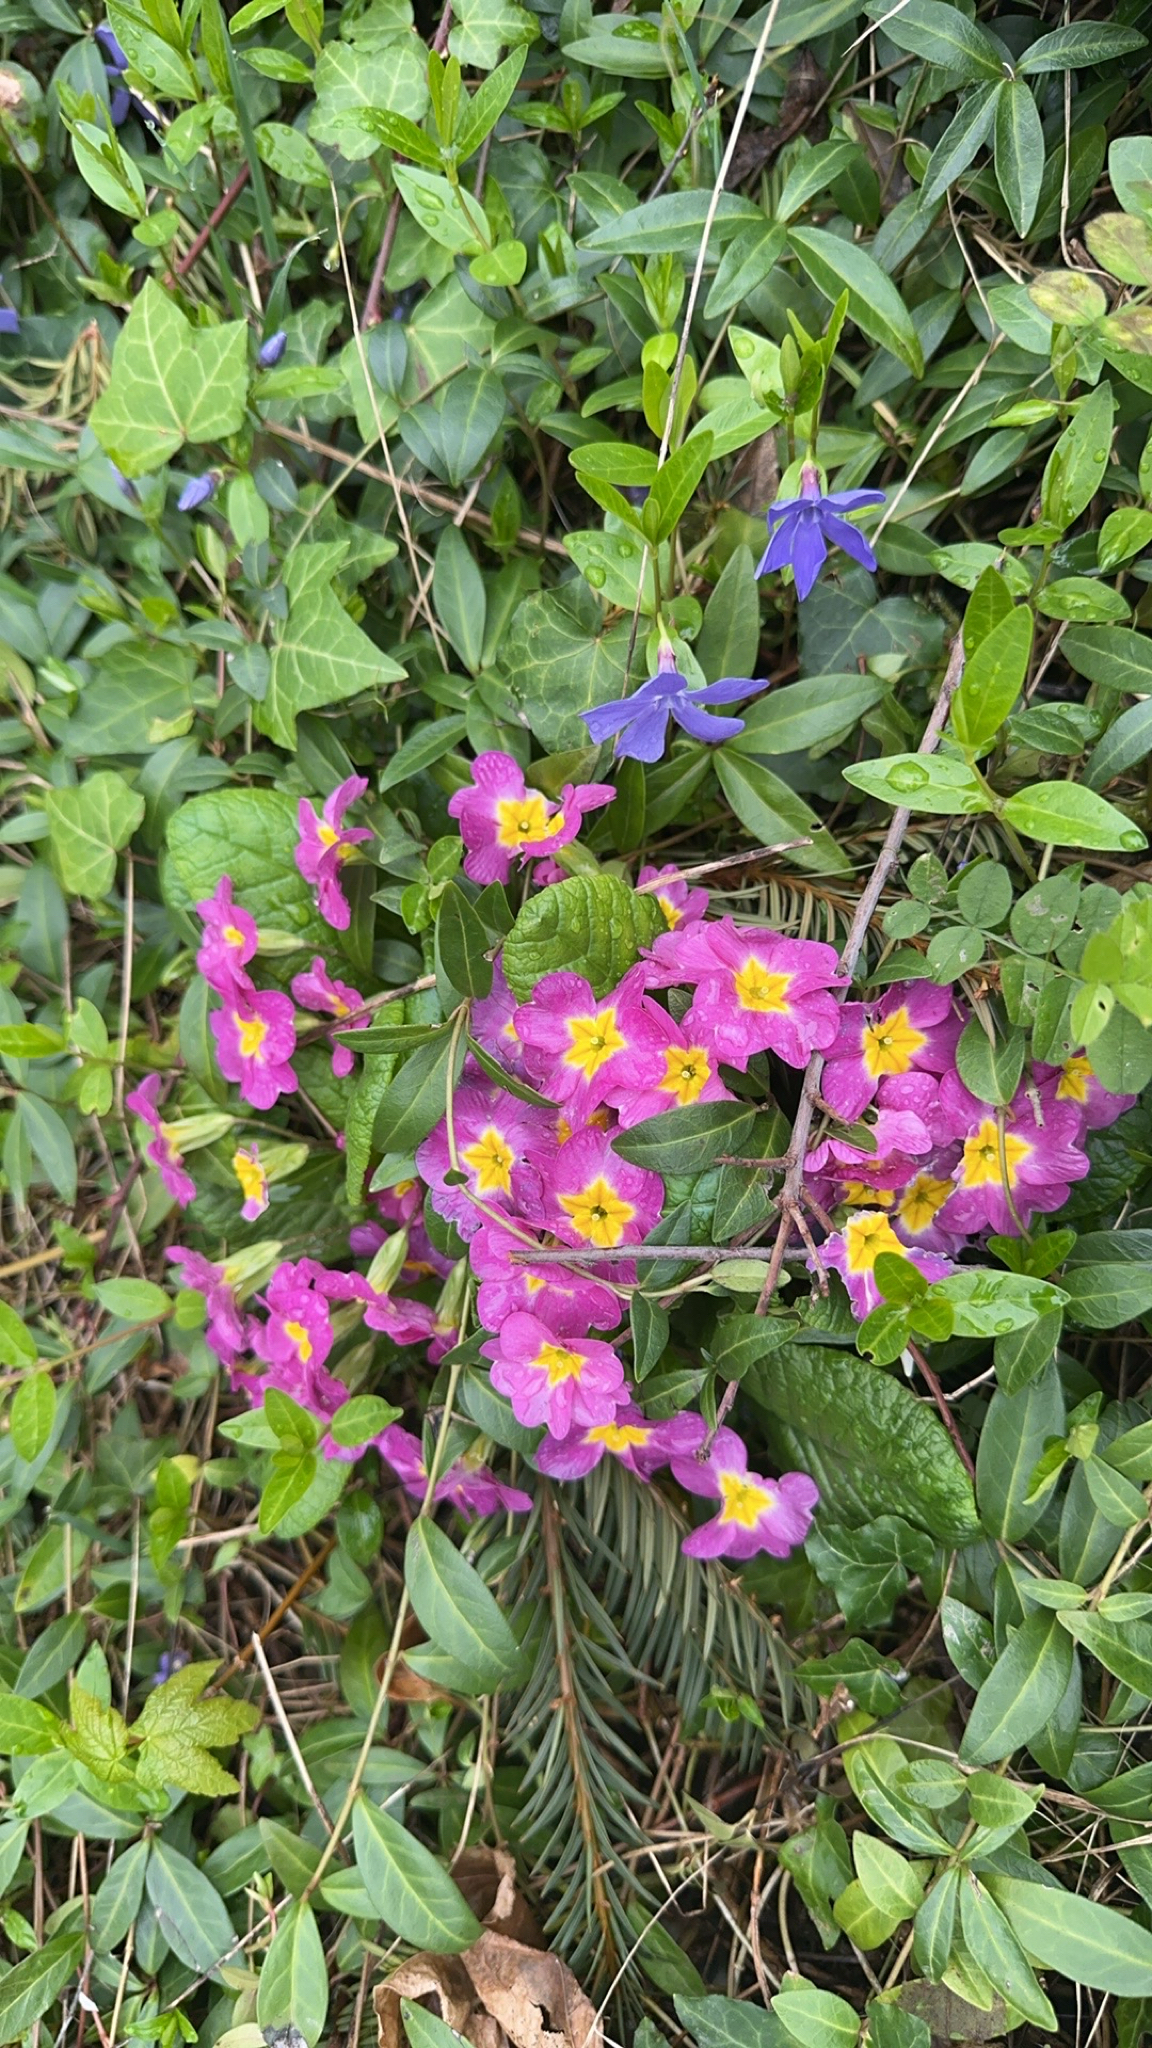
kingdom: Plantae
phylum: Tracheophyta
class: Magnoliopsida
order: Ericales
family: Primulaceae
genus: Primula
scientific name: Primula vulgaris
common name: Primrose
